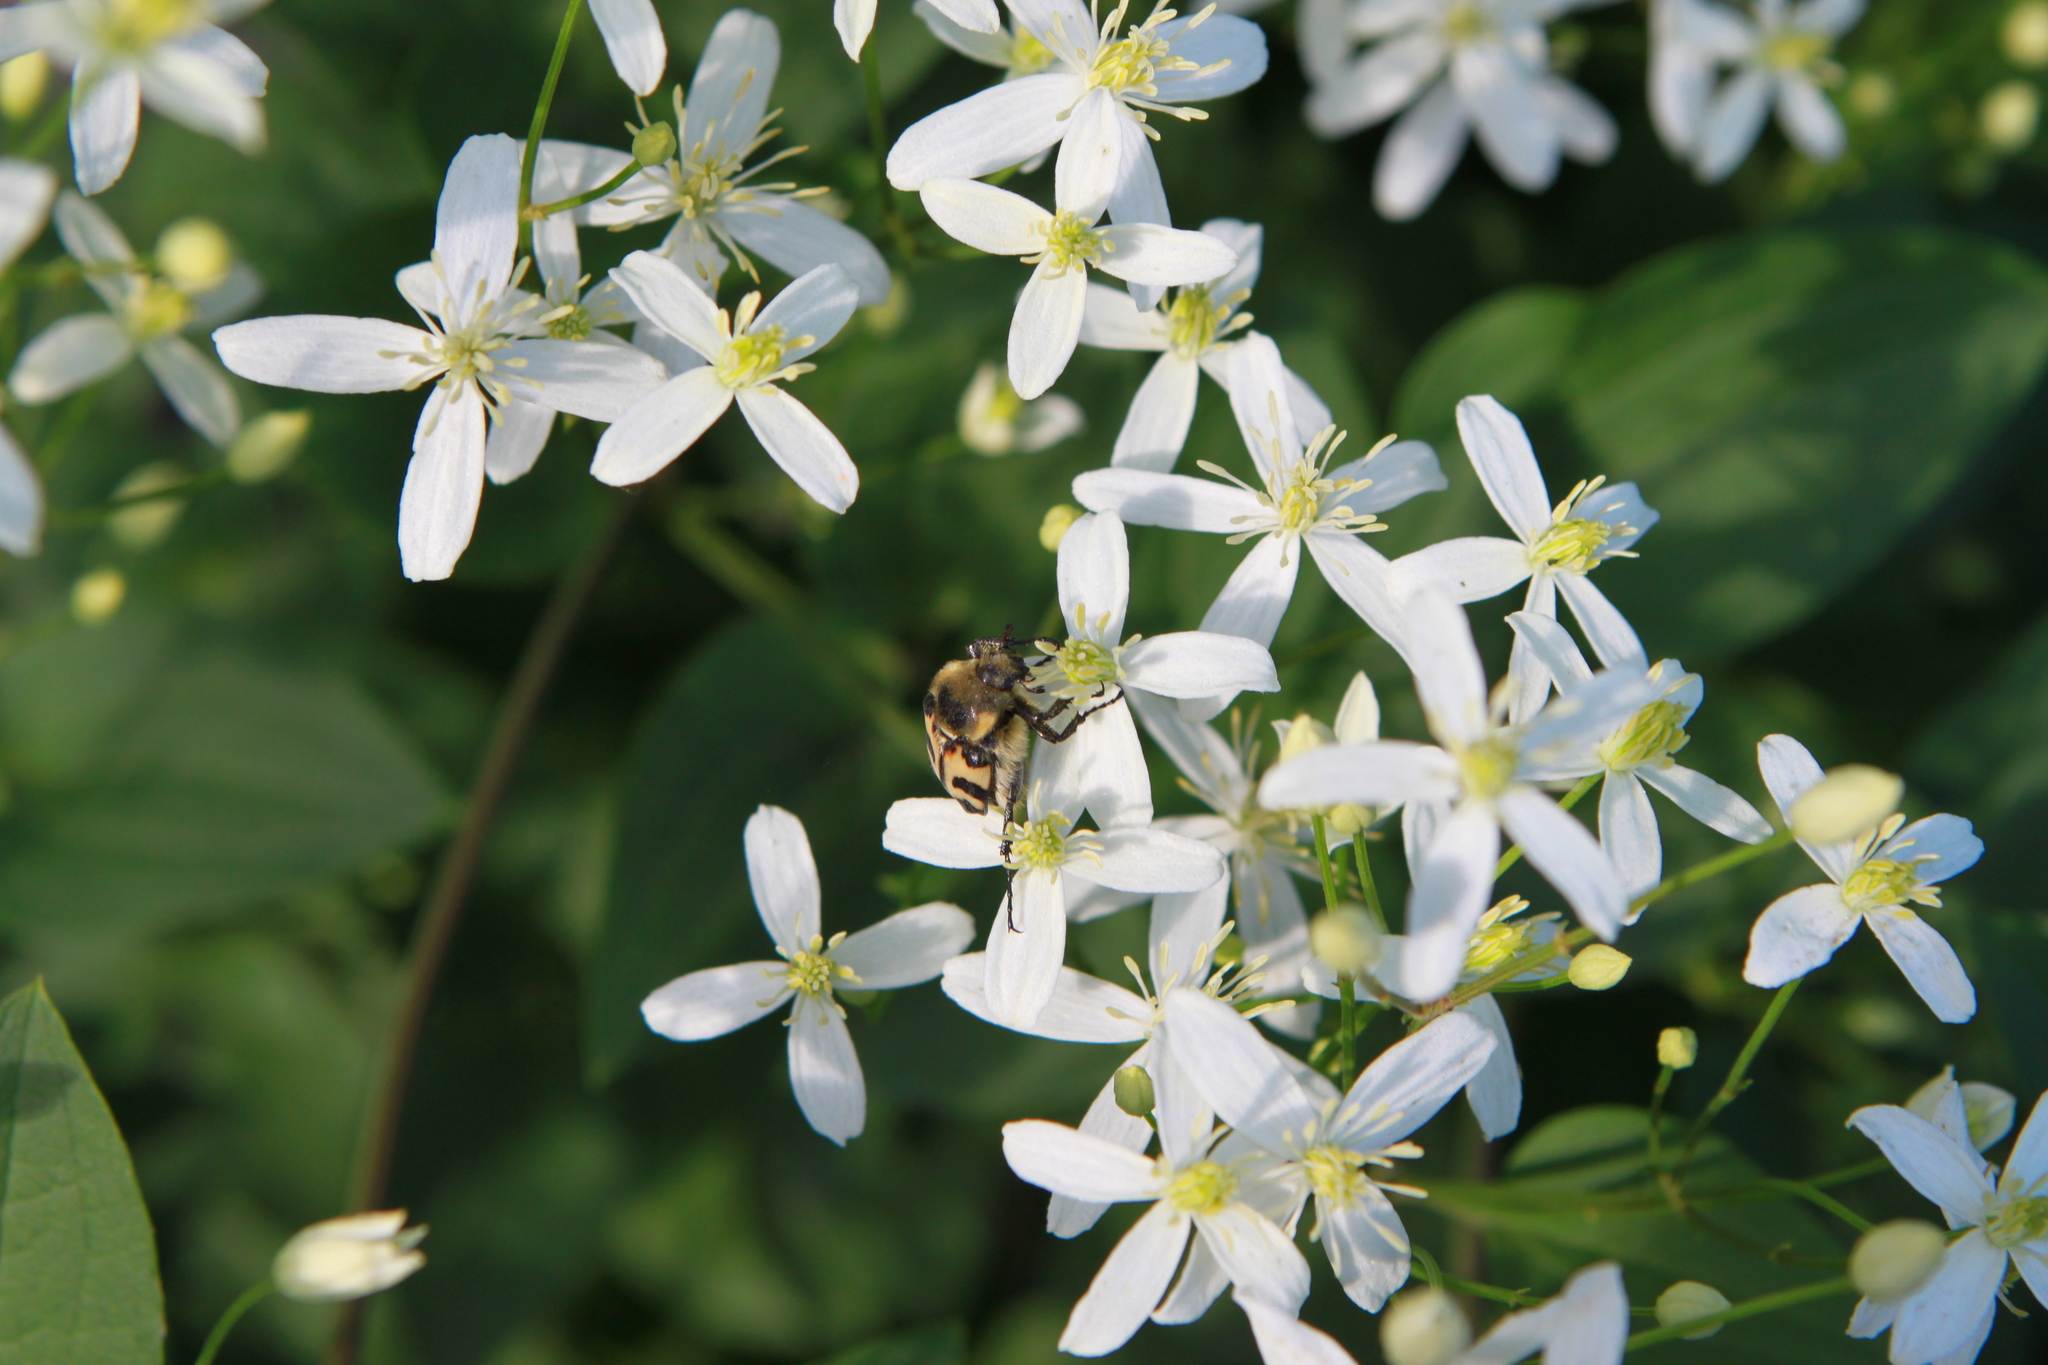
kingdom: Animalia
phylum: Arthropoda
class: Insecta
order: Coleoptera
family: Scarabaeidae
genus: Trichius
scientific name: Trichius fasciatus
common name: Bee beetle
